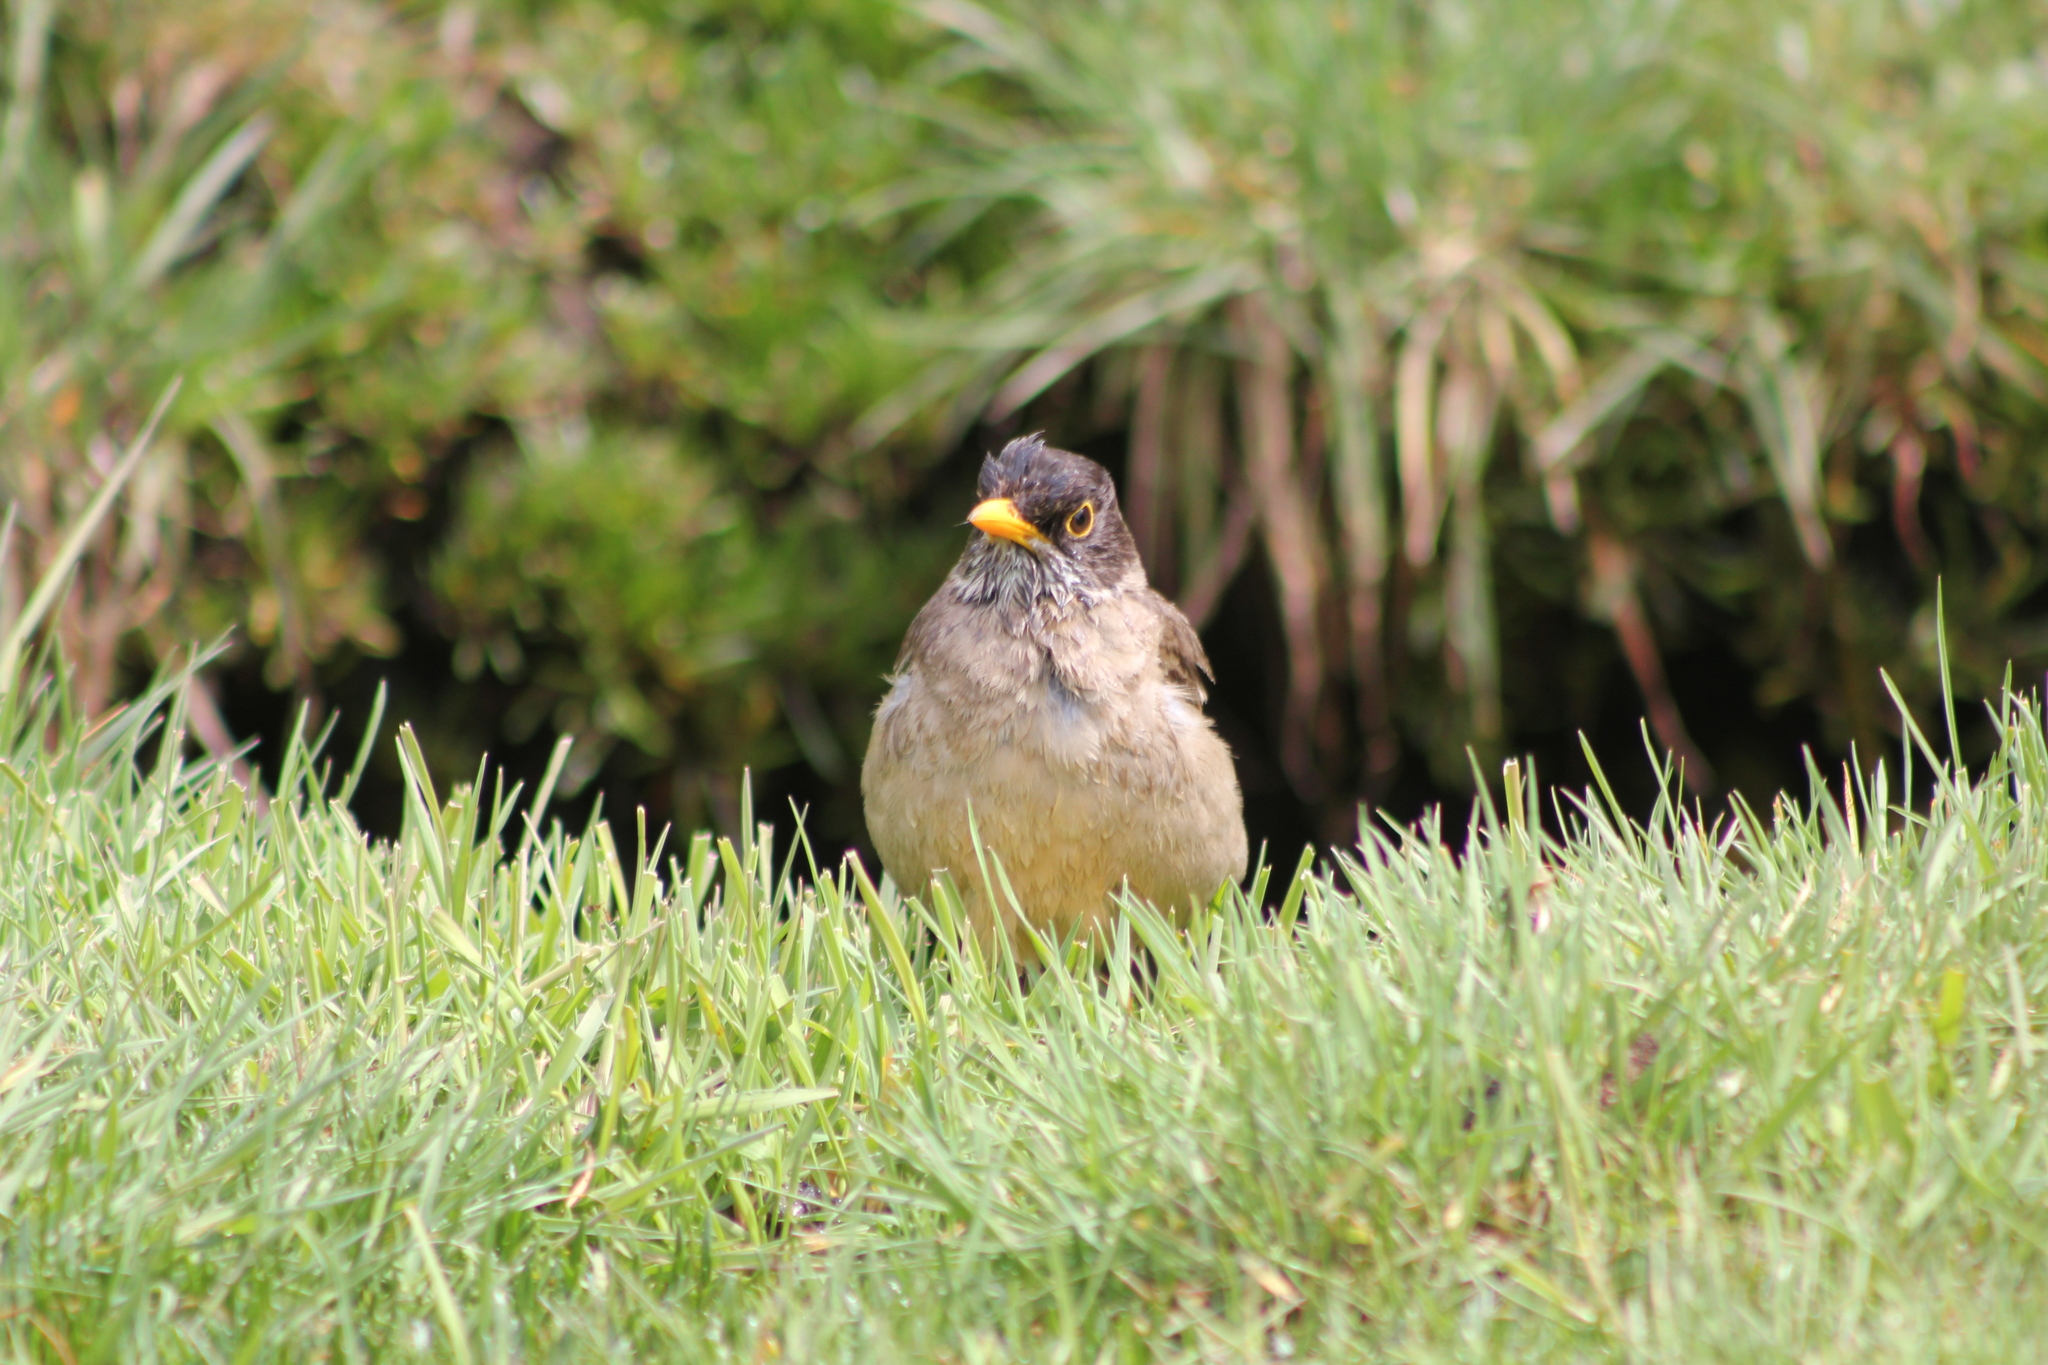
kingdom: Animalia
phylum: Chordata
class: Aves
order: Passeriformes
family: Turdidae
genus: Turdus
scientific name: Turdus falcklandii
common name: Austral thrush
